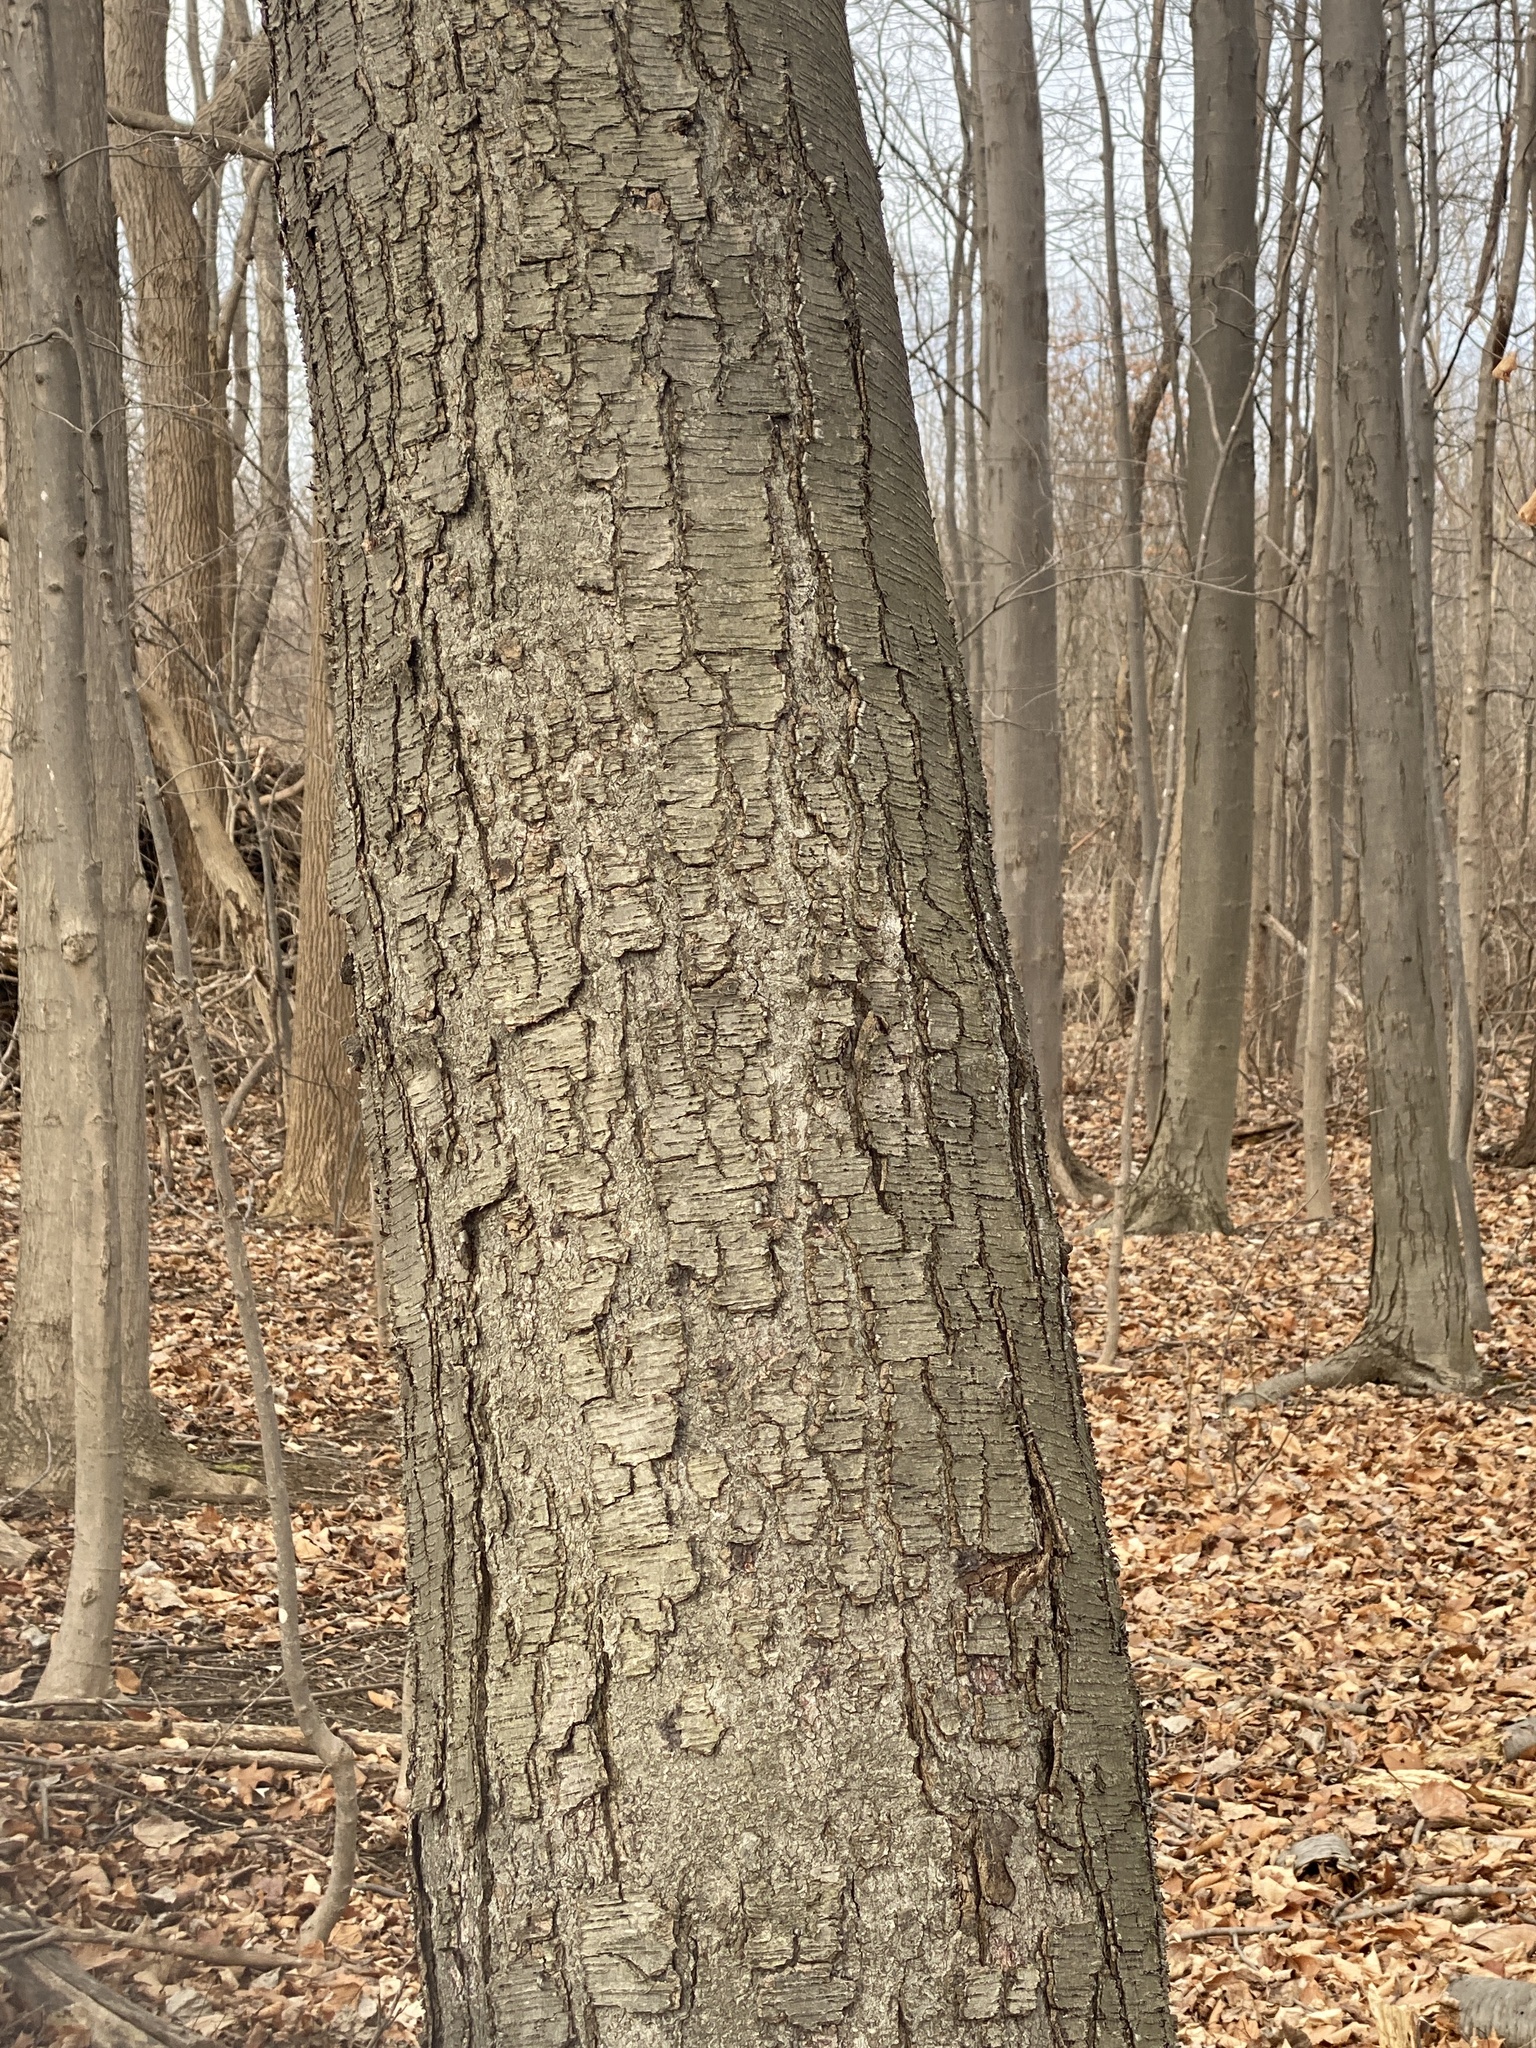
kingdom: Plantae
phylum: Tracheophyta
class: Magnoliopsida
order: Fagales
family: Betulaceae
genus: Betula
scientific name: Betula lenta
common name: Black birch
